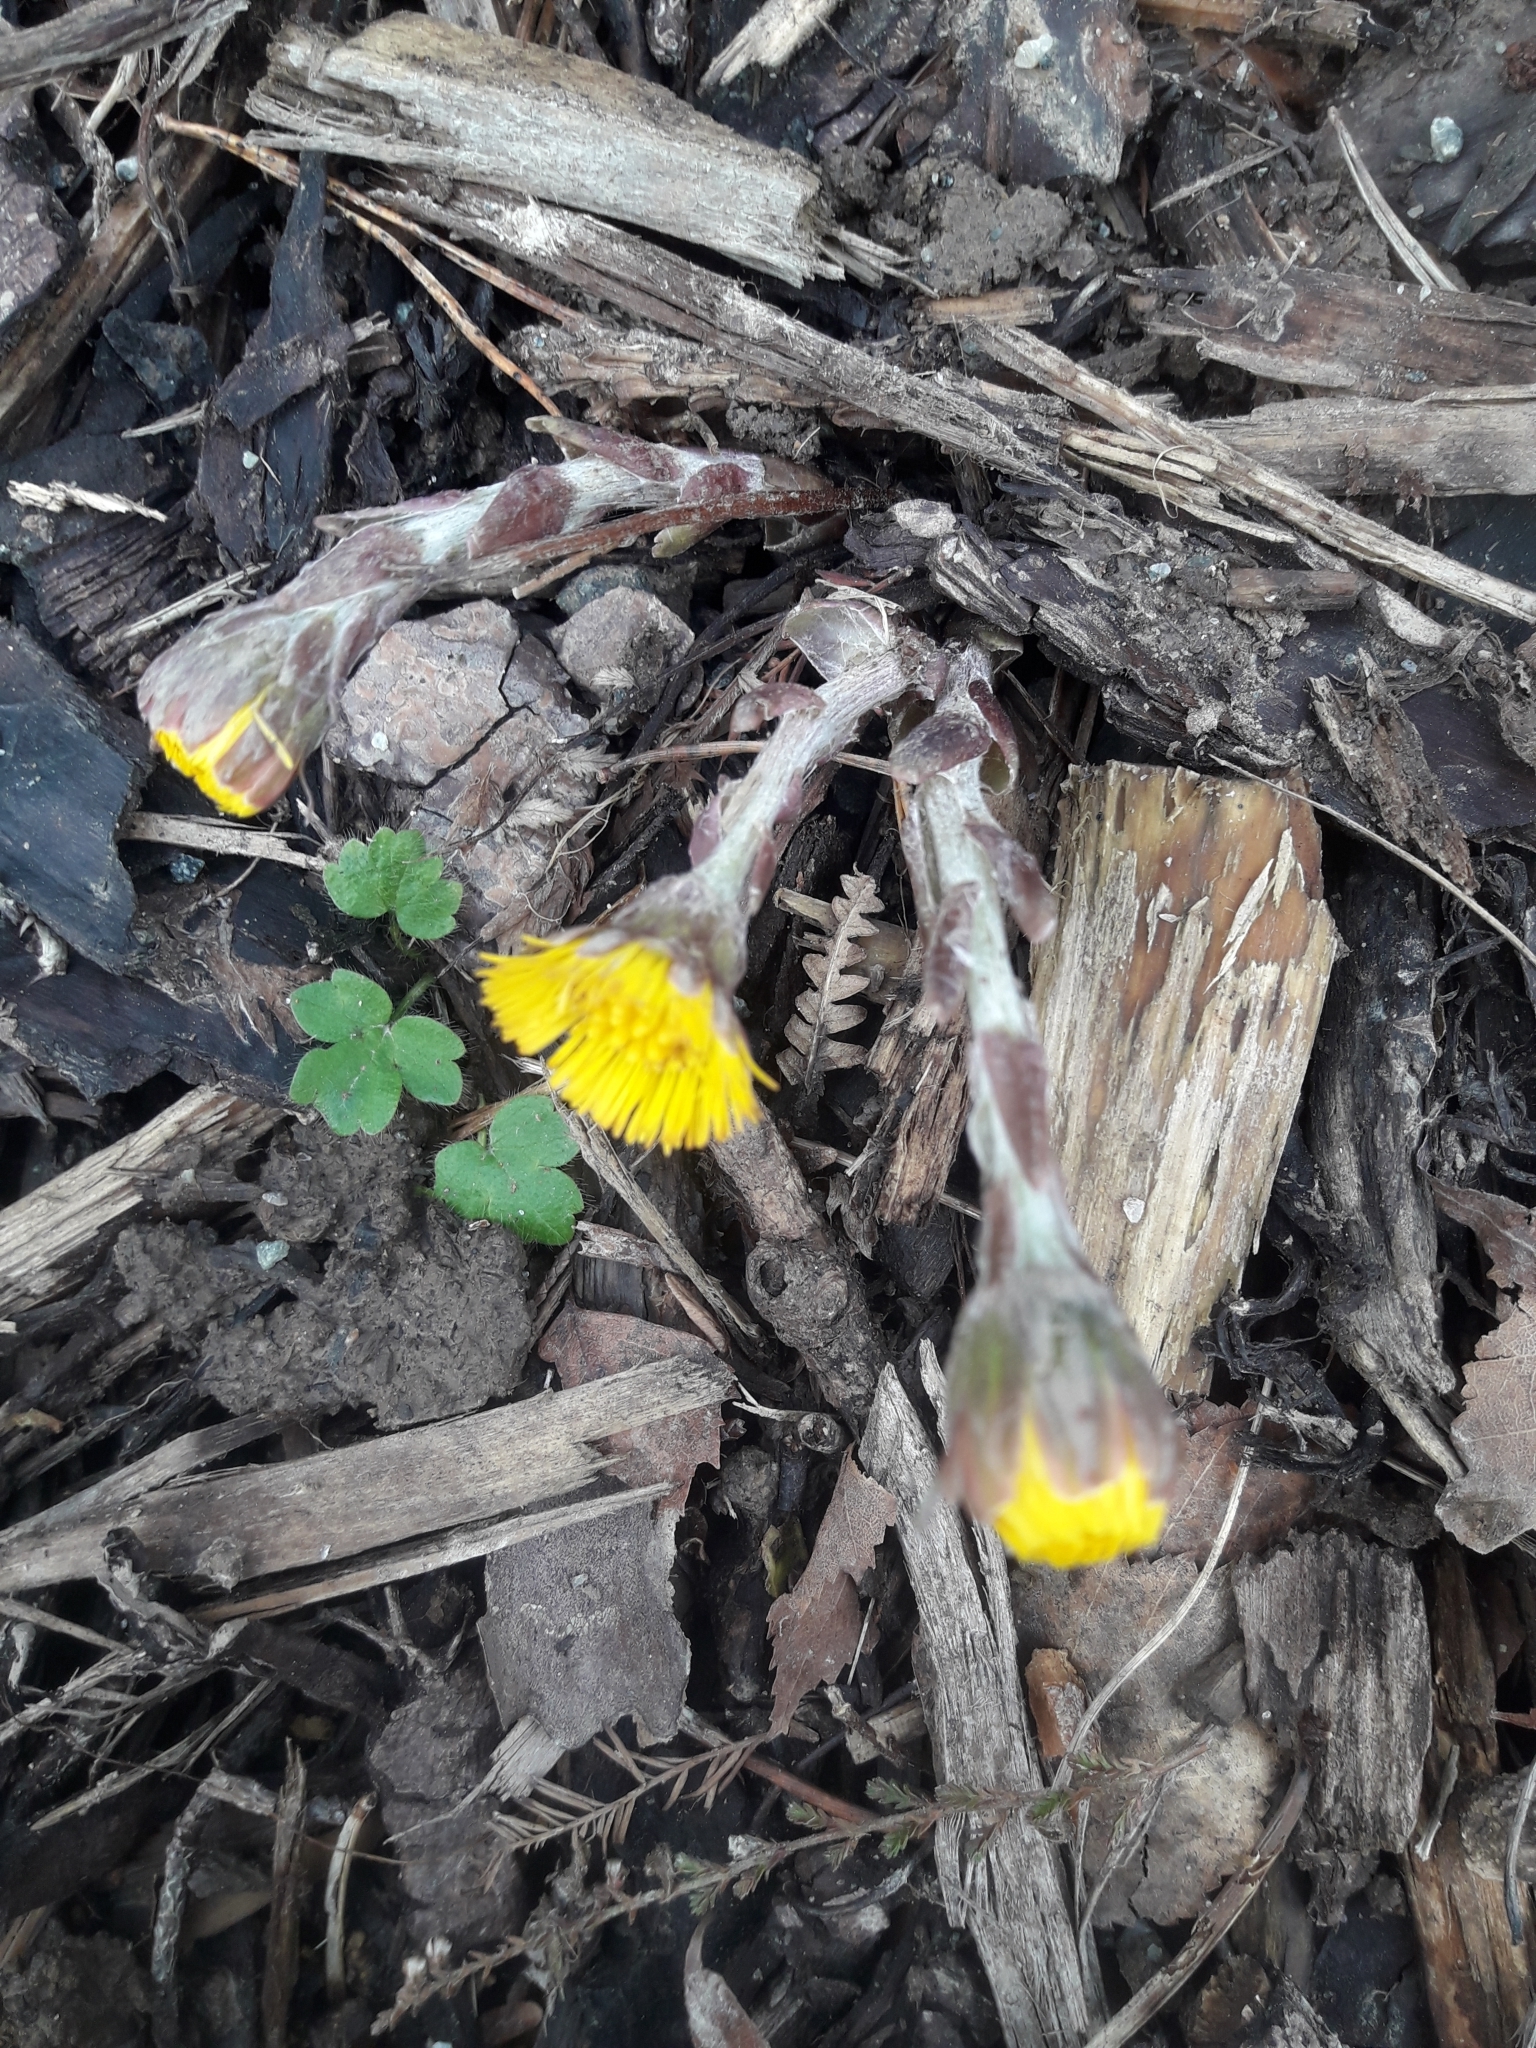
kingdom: Plantae
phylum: Tracheophyta
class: Magnoliopsida
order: Asterales
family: Asteraceae
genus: Tussilago
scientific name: Tussilago farfara
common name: Coltsfoot
